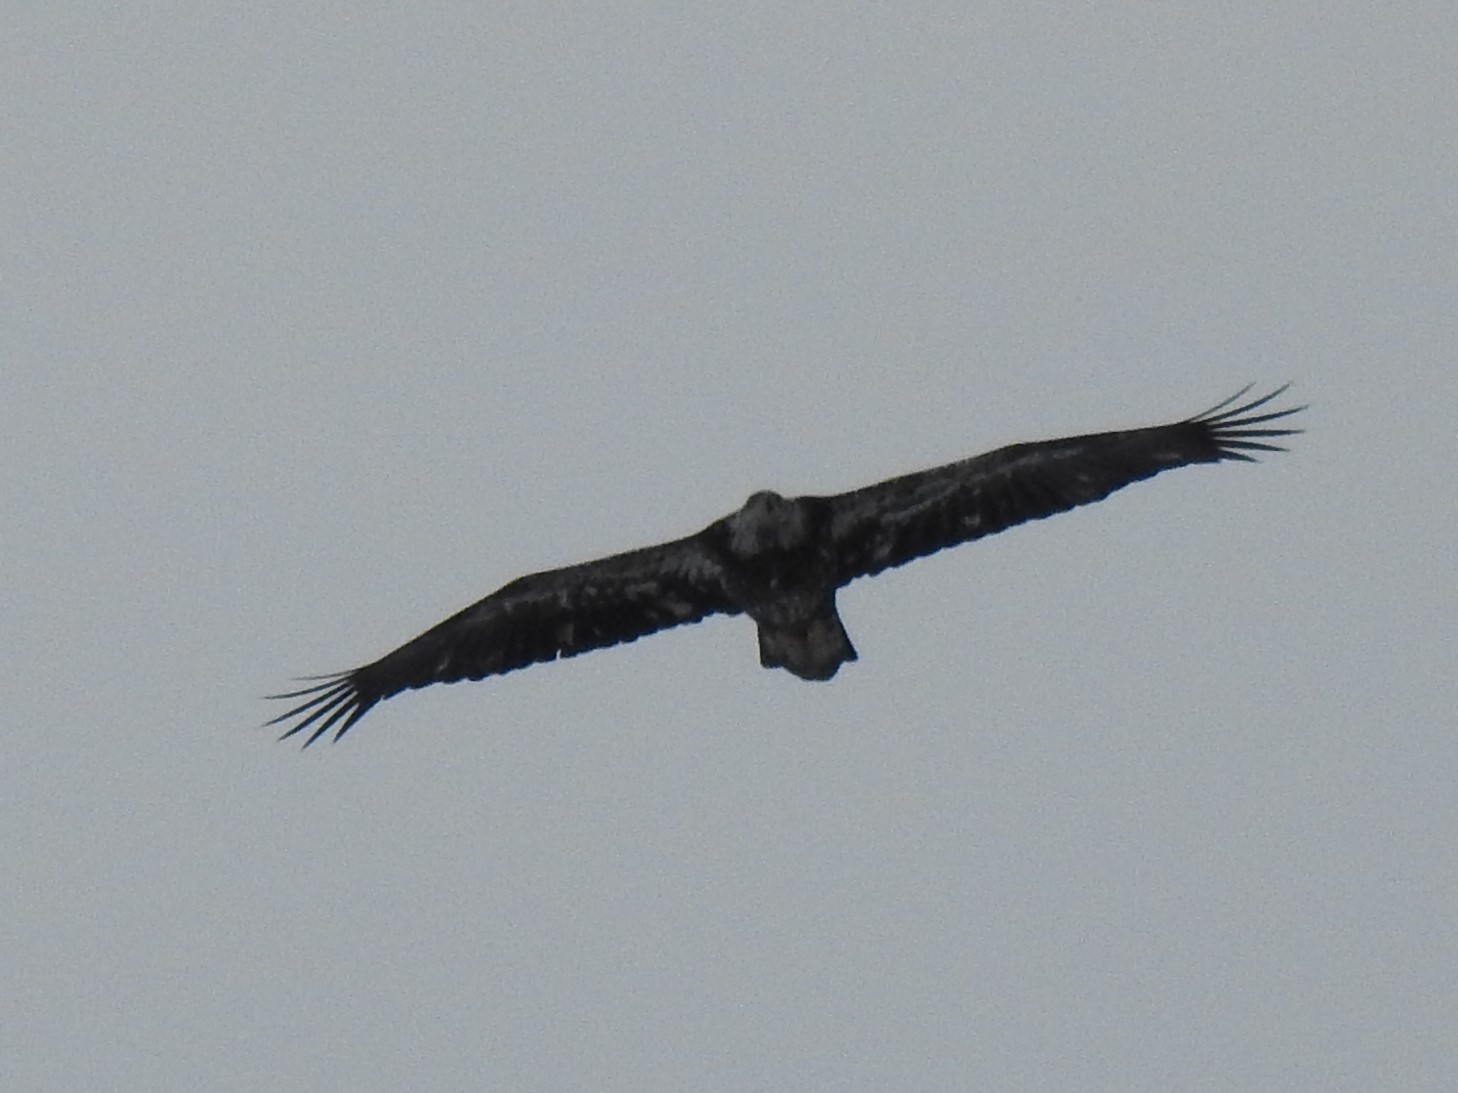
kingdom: Animalia
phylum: Chordata
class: Aves
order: Accipitriformes
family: Accipitridae
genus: Haliaeetus
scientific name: Haliaeetus leucocephalus
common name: Bald eagle
